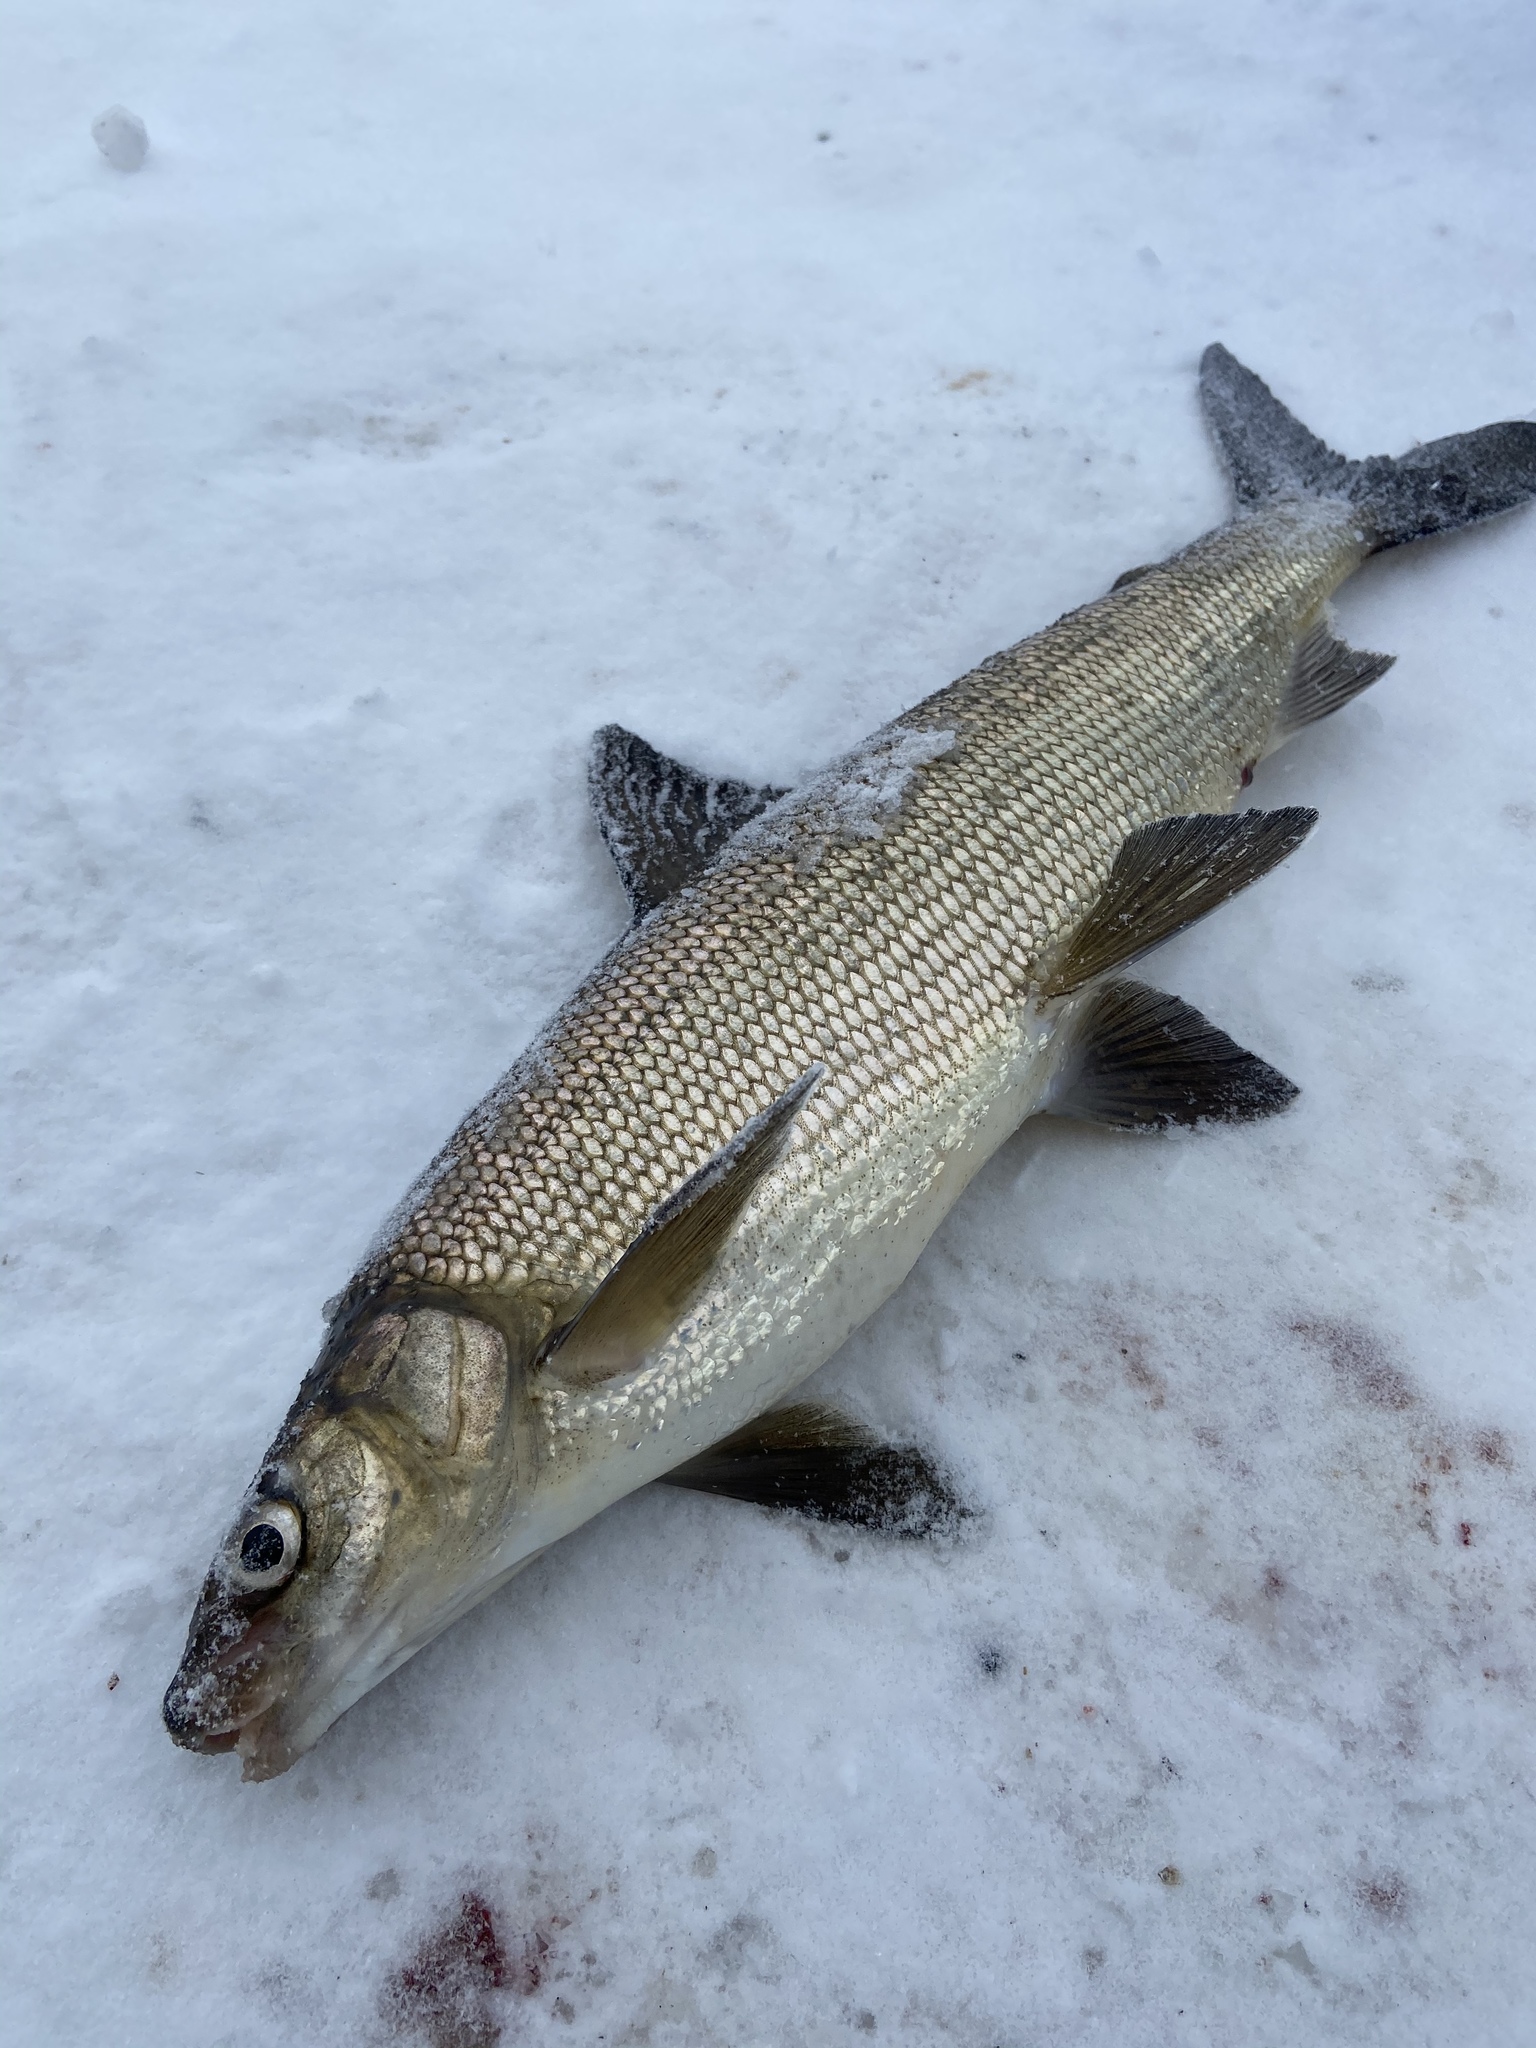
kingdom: Animalia
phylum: Chordata
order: Salmoniformes
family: Salmonidae
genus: Coregonus
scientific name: Coregonus clupeaformis
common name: Lake whitefish
